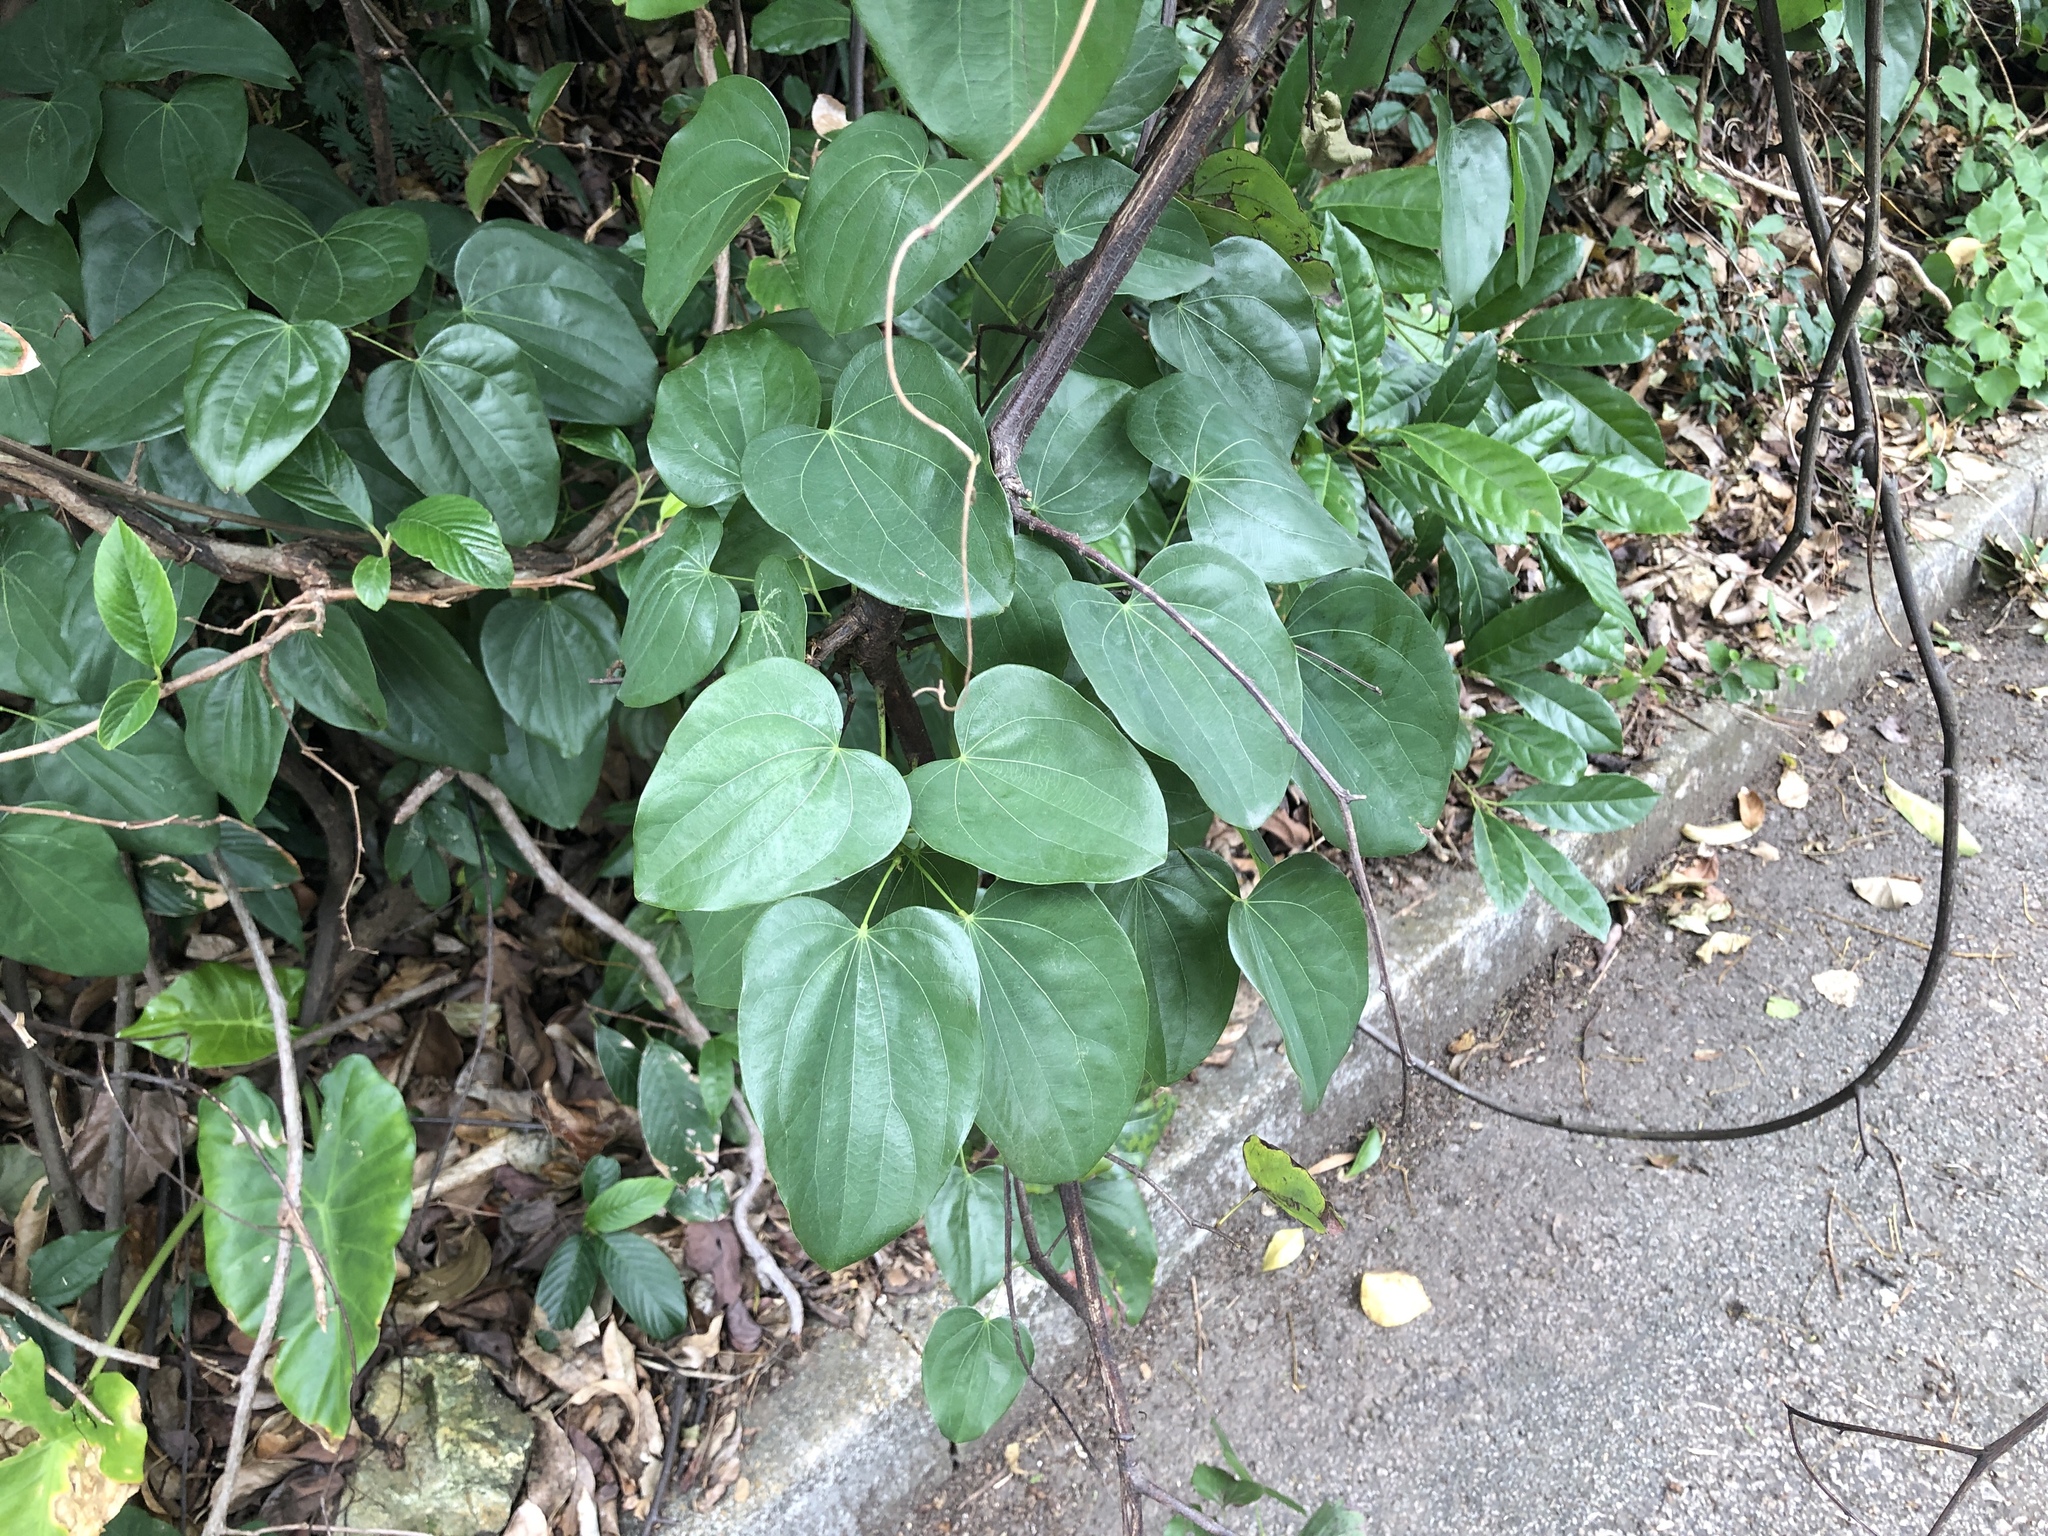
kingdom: Plantae
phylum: Tracheophyta
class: Magnoliopsida
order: Fabales
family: Fabaceae
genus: Phanera
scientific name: Phanera championii
